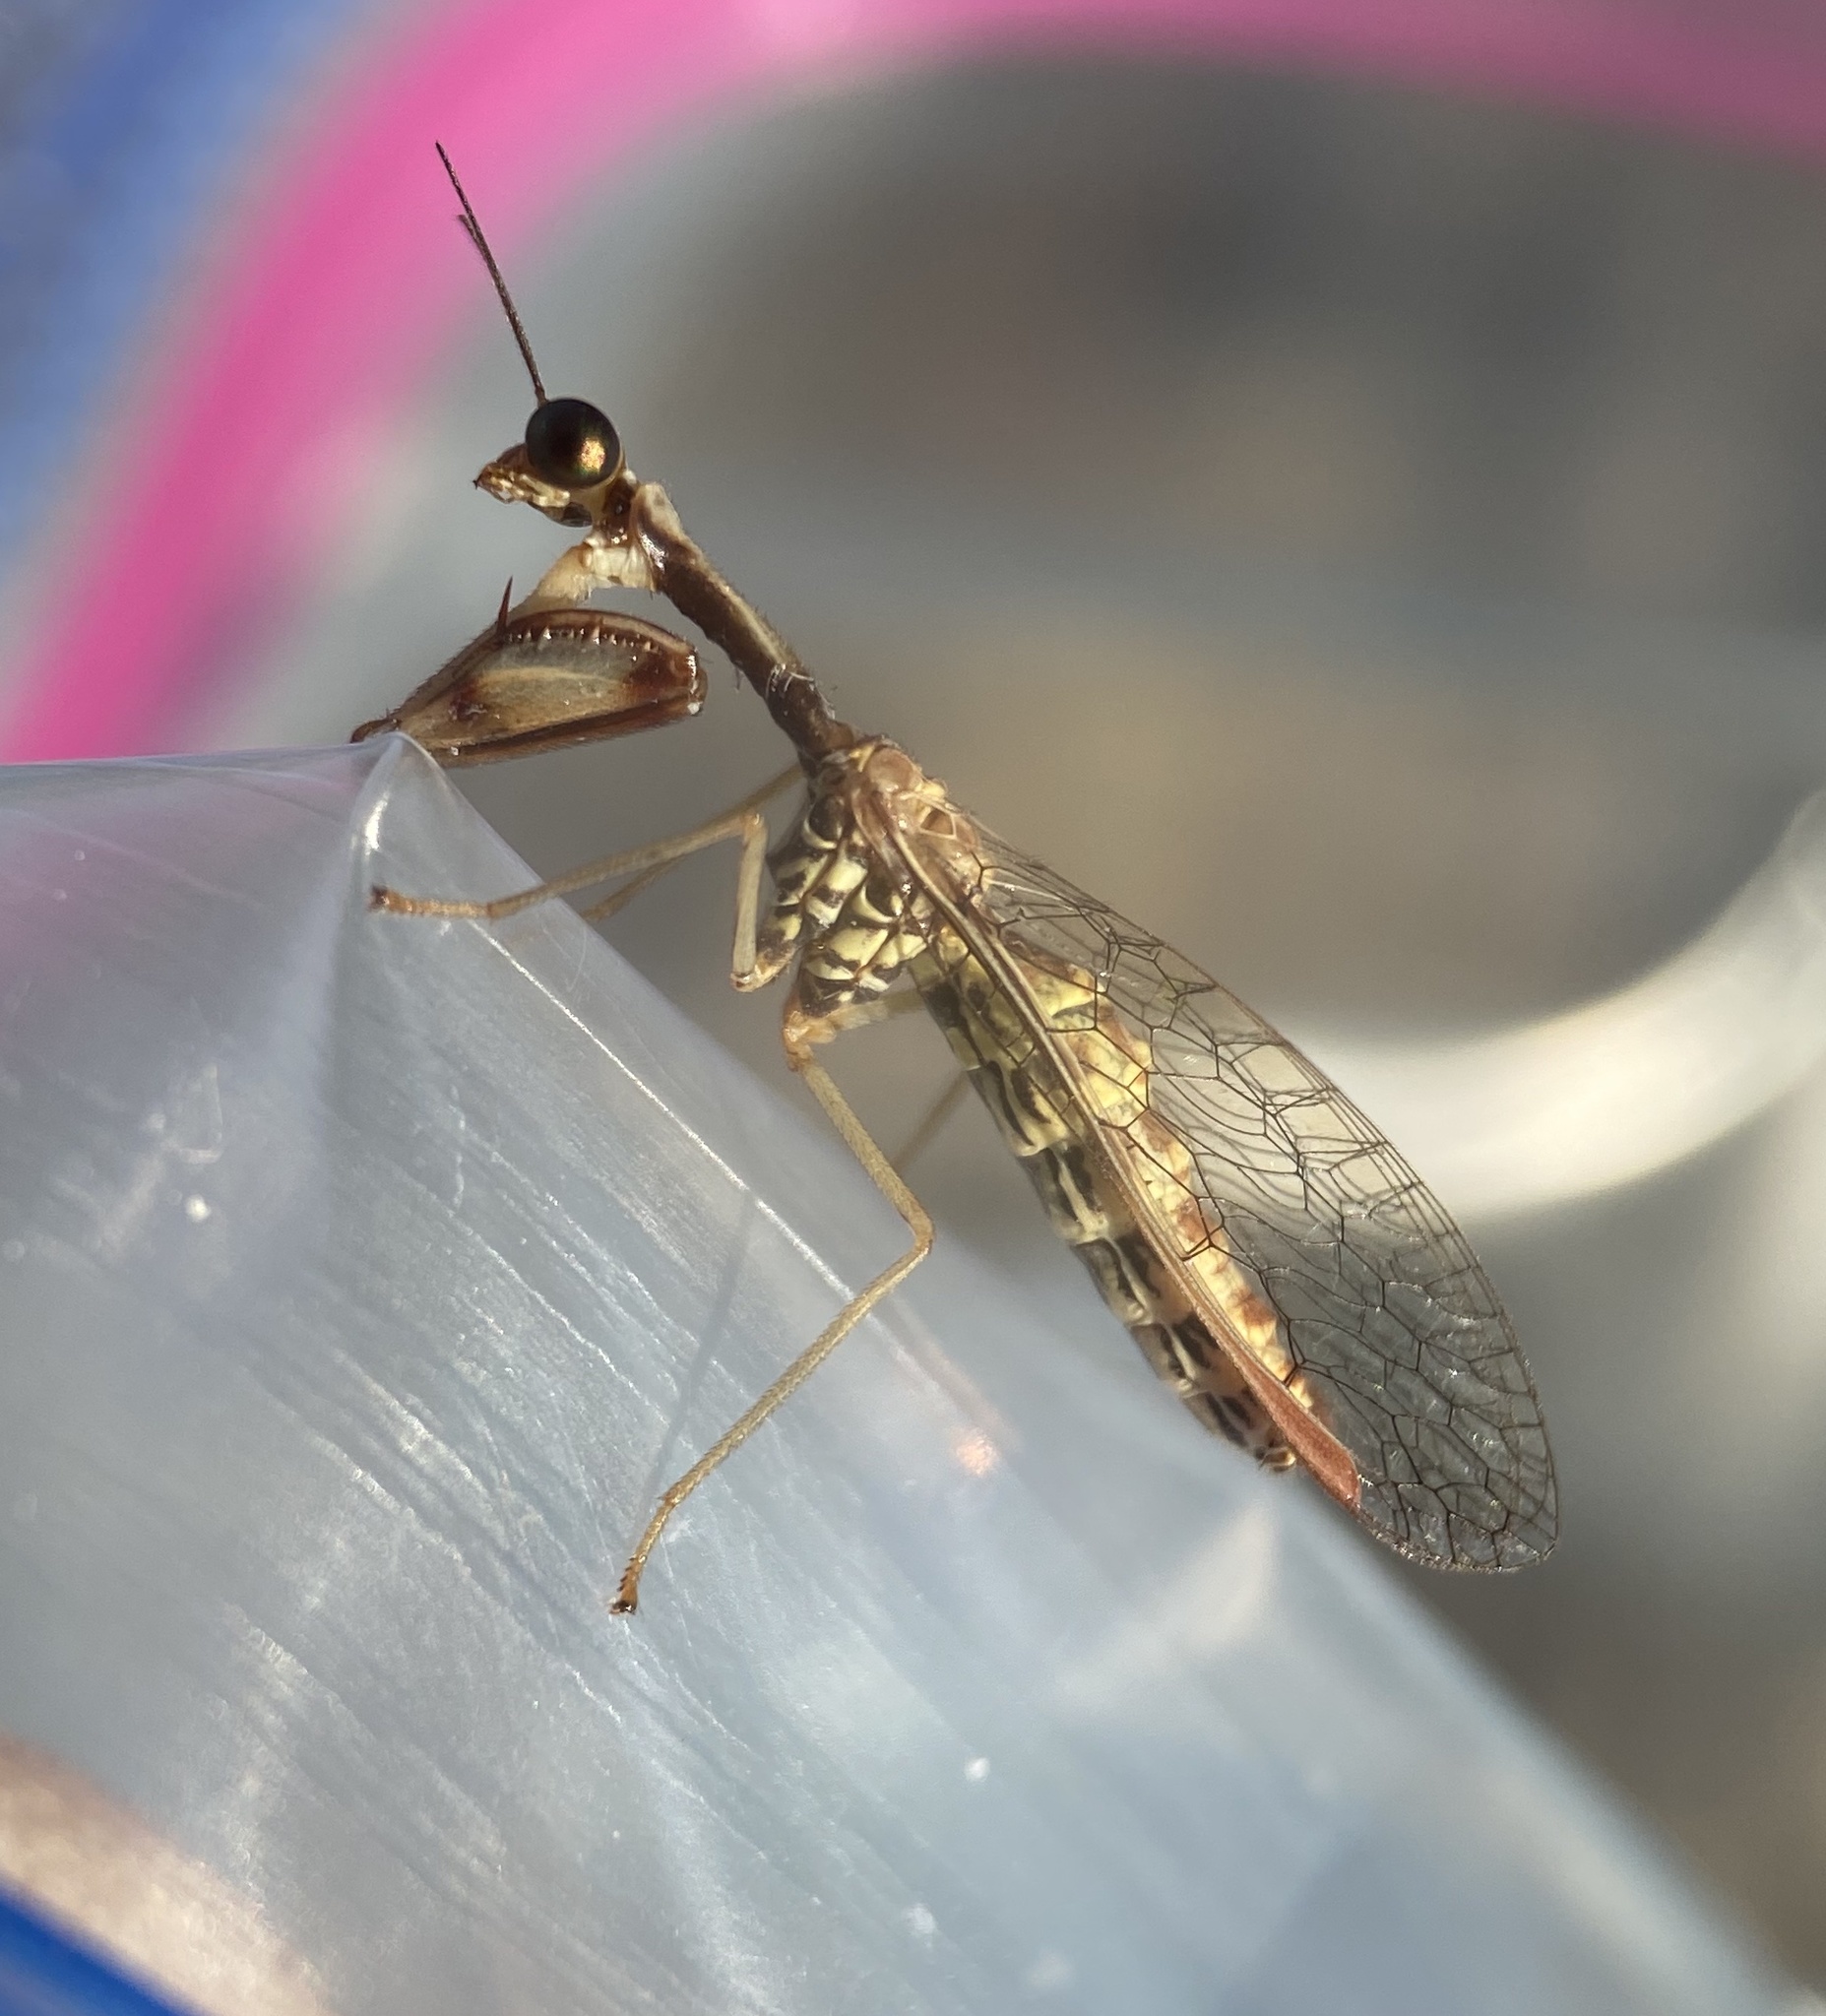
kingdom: Animalia
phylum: Arthropoda
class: Insecta
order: Neuroptera
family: Mantispidae
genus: Leptomantispa
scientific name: Leptomantispa pulchella
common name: Stevens's mantidfly
